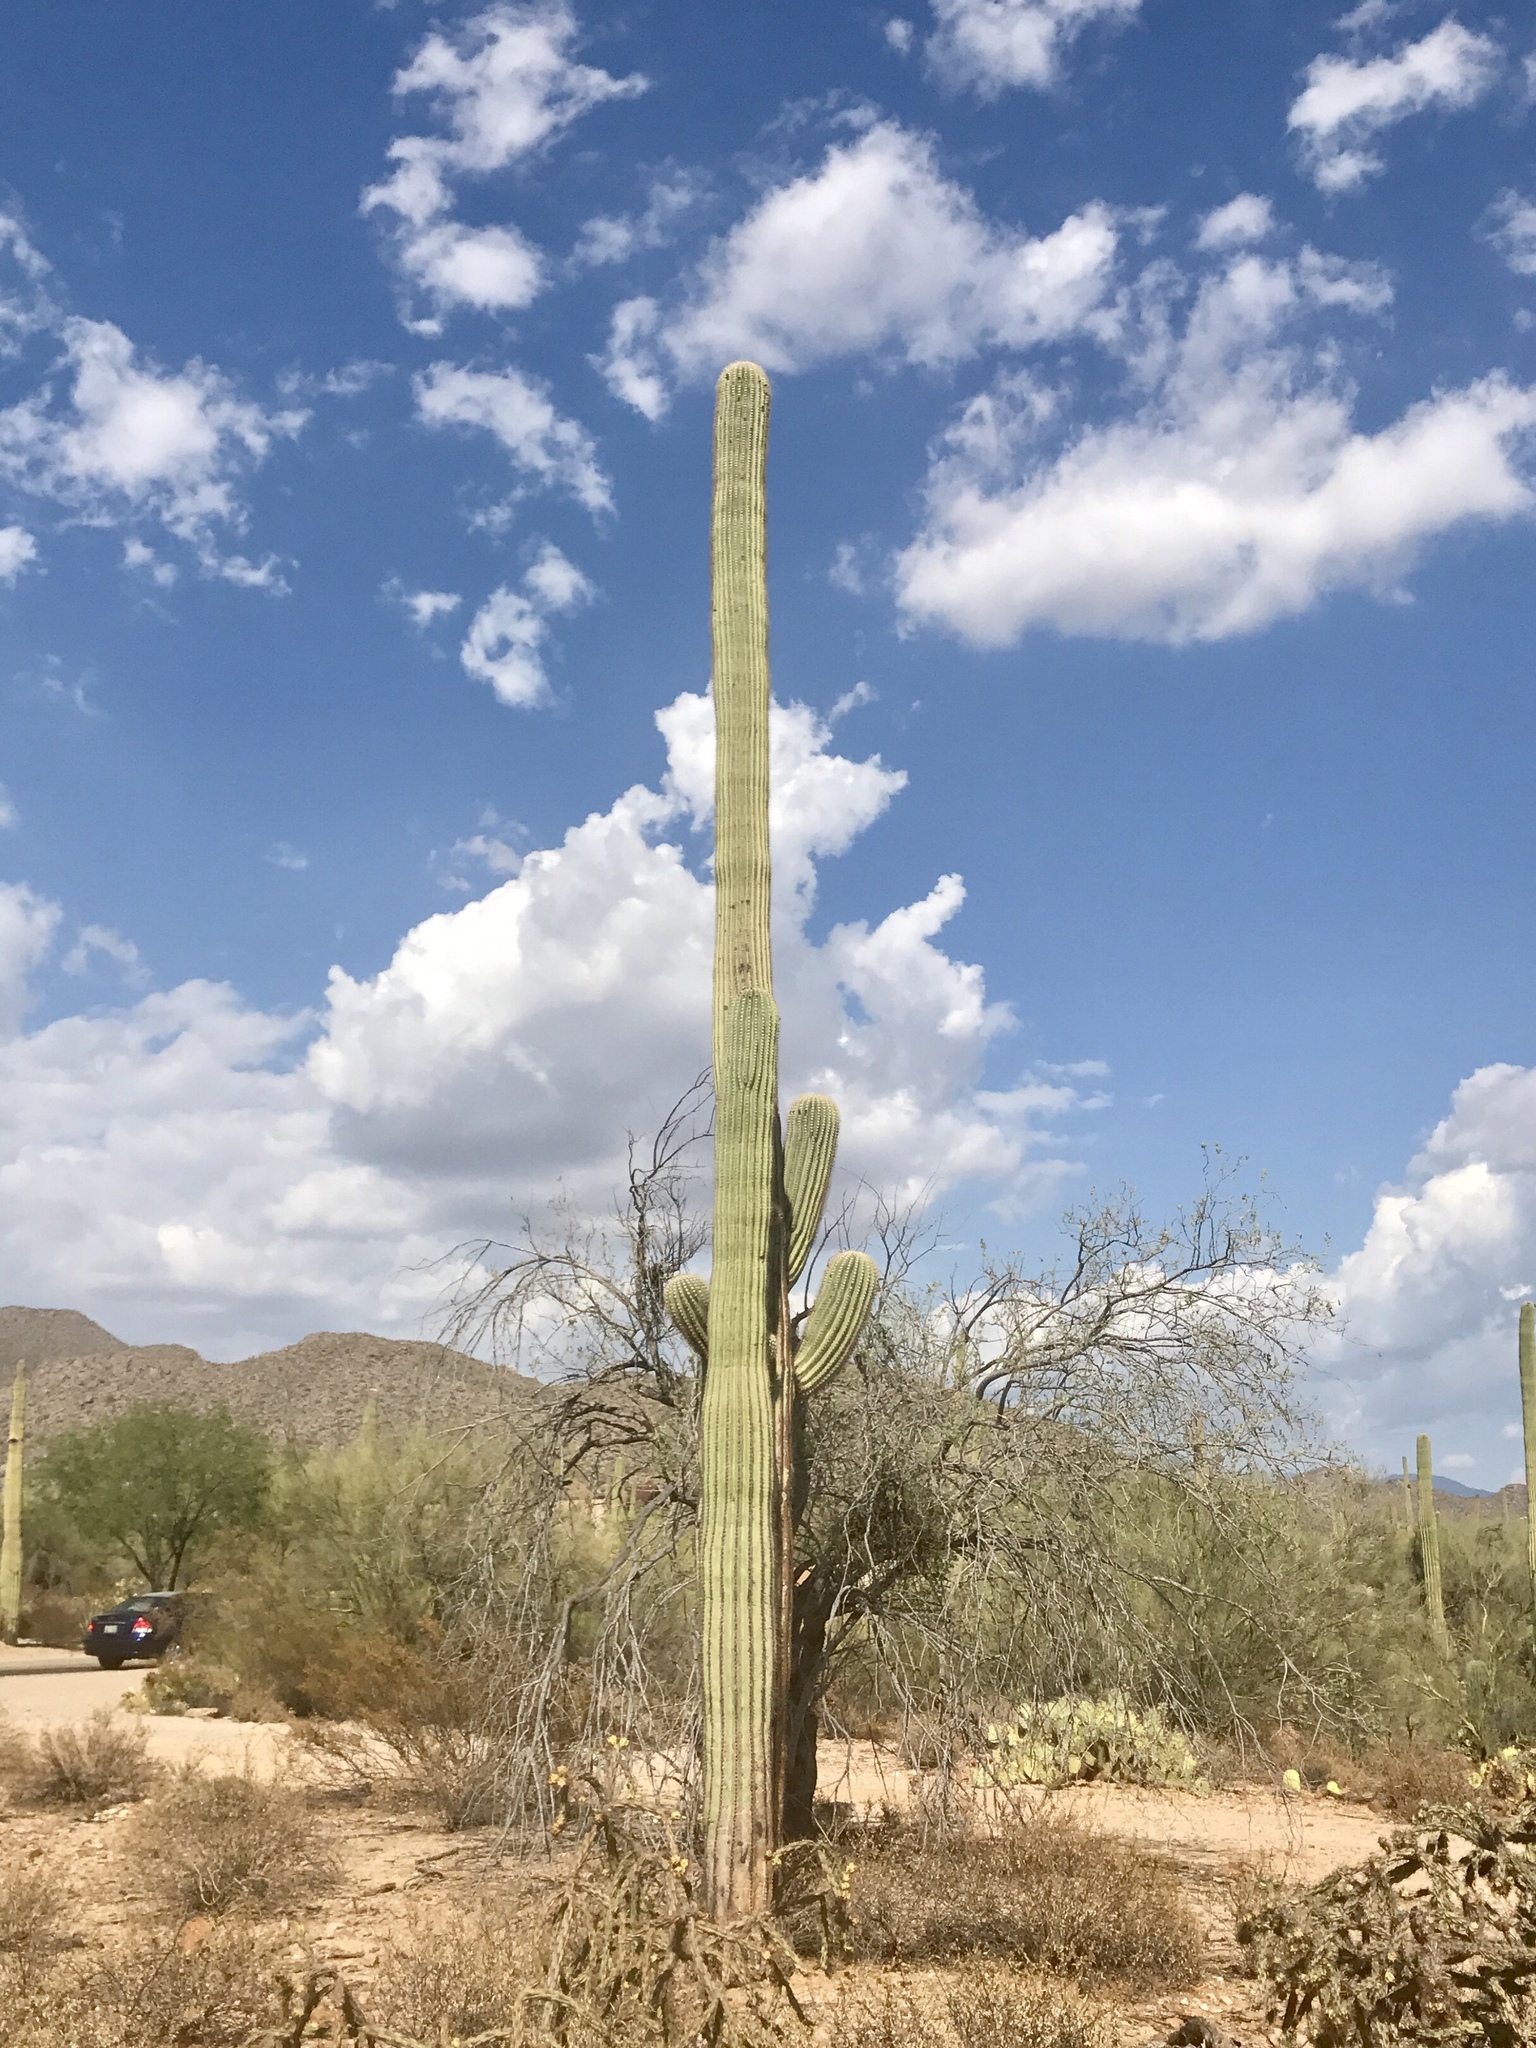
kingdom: Plantae
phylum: Tracheophyta
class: Magnoliopsida
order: Caryophyllales
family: Cactaceae
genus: Carnegiea
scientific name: Carnegiea gigantea
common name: Saguaro
